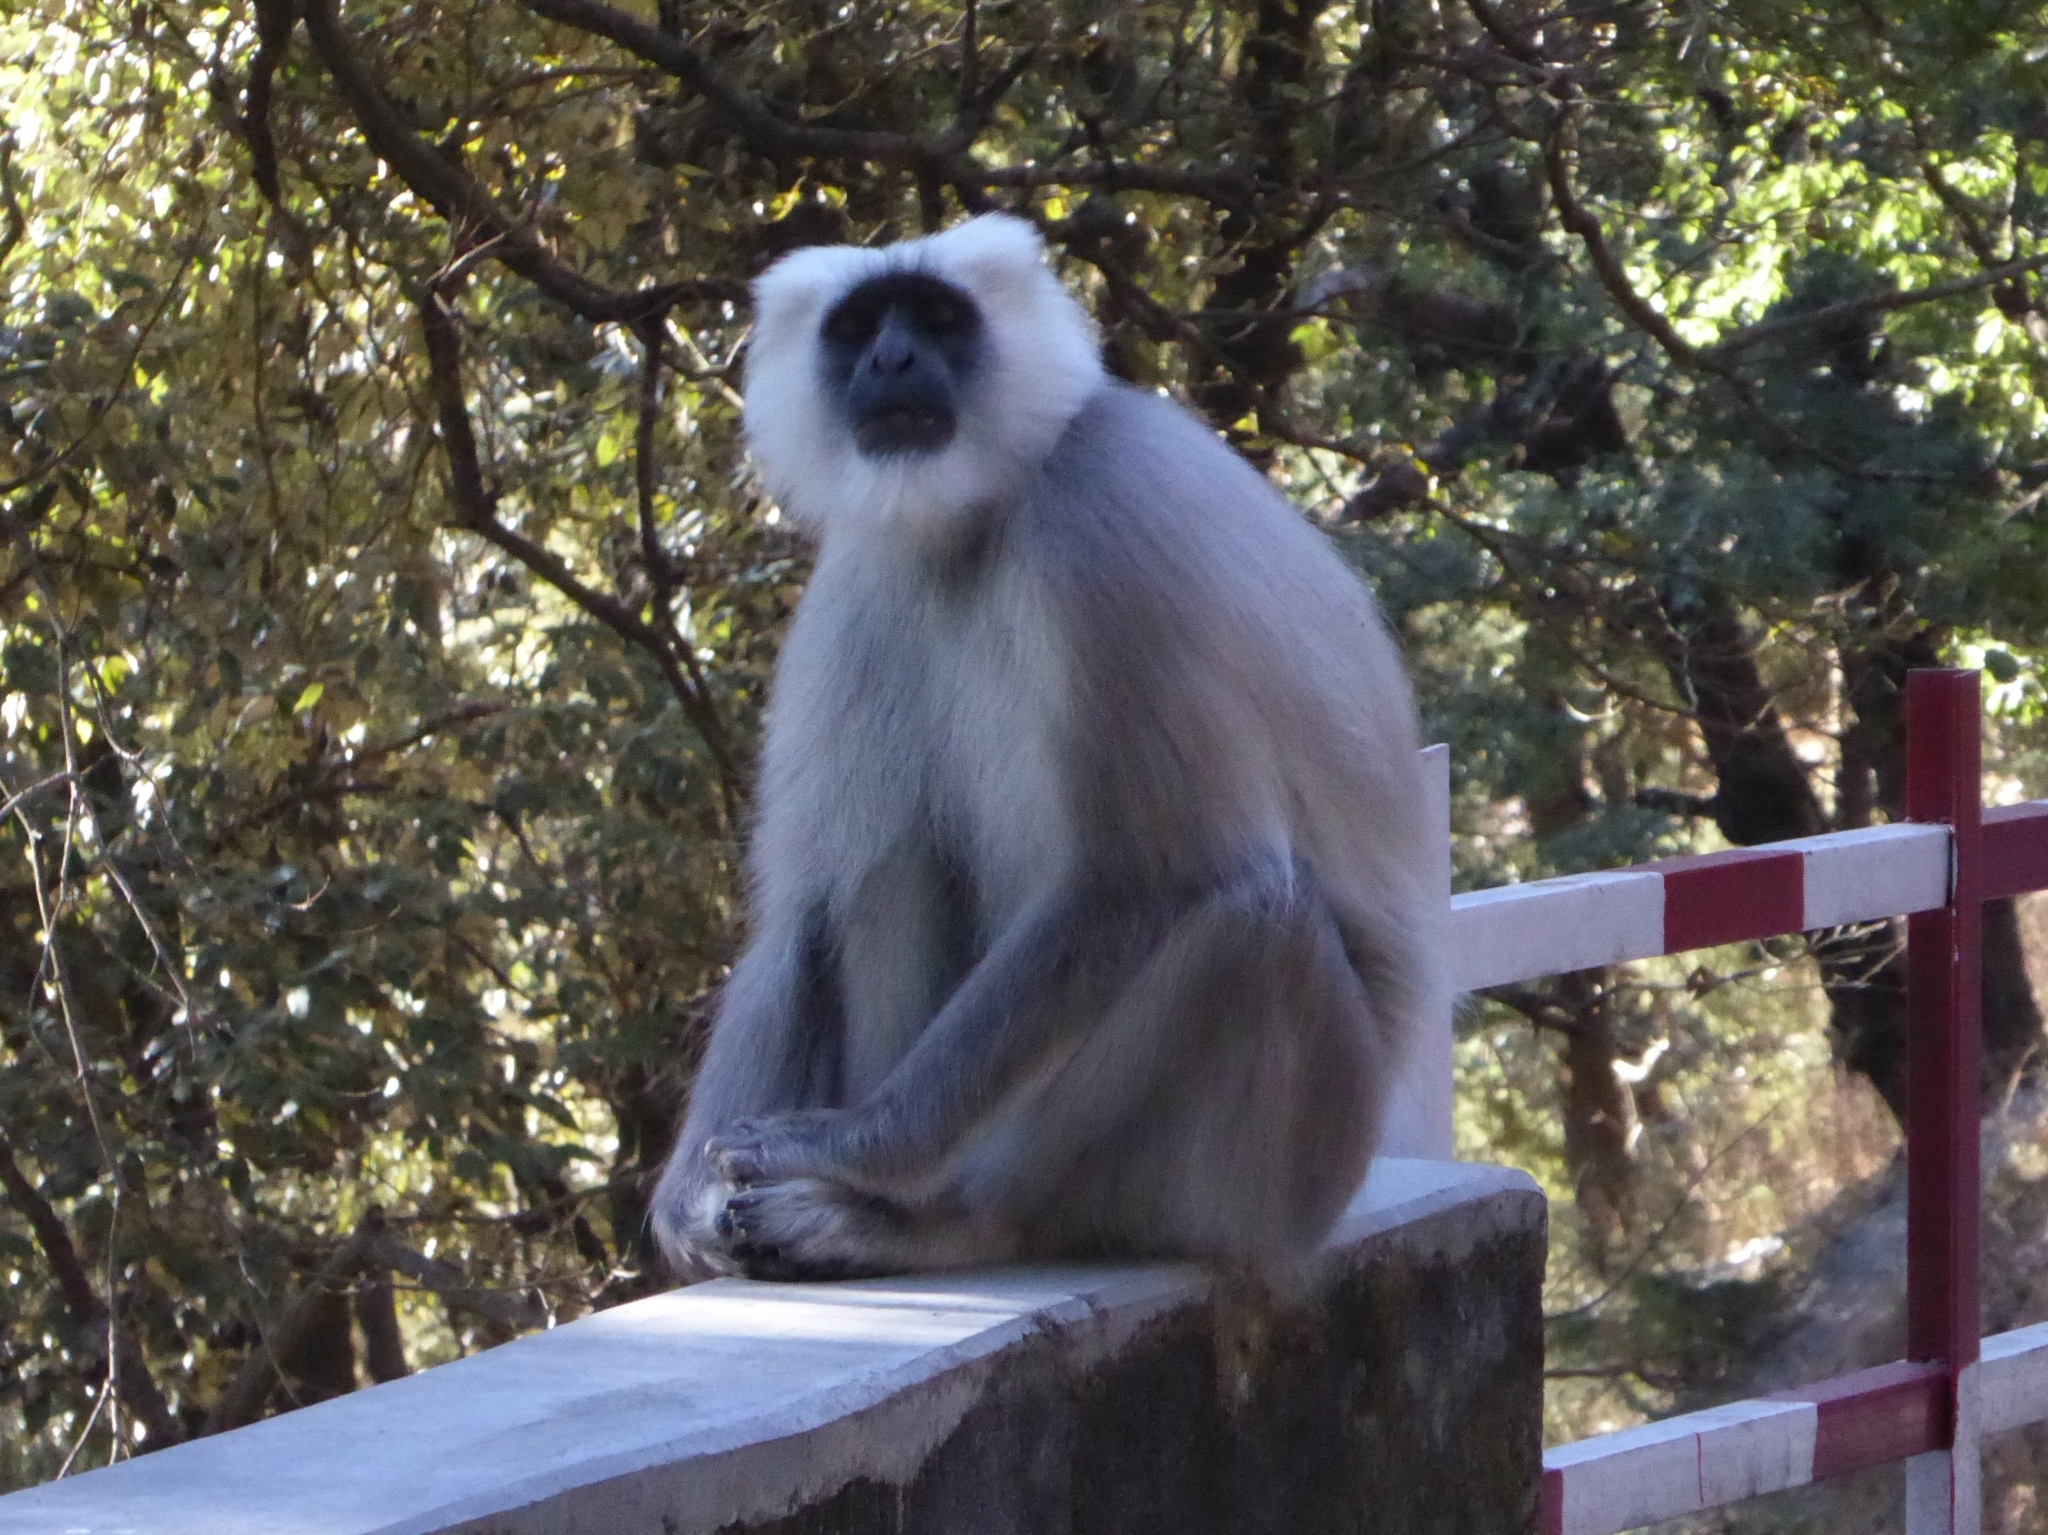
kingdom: Animalia
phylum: Chordata
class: Mammalia
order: Primates
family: Cercopithecidae
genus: Semnopithecus
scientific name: Semnopithecus schistaceus
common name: Nepal gray langur
